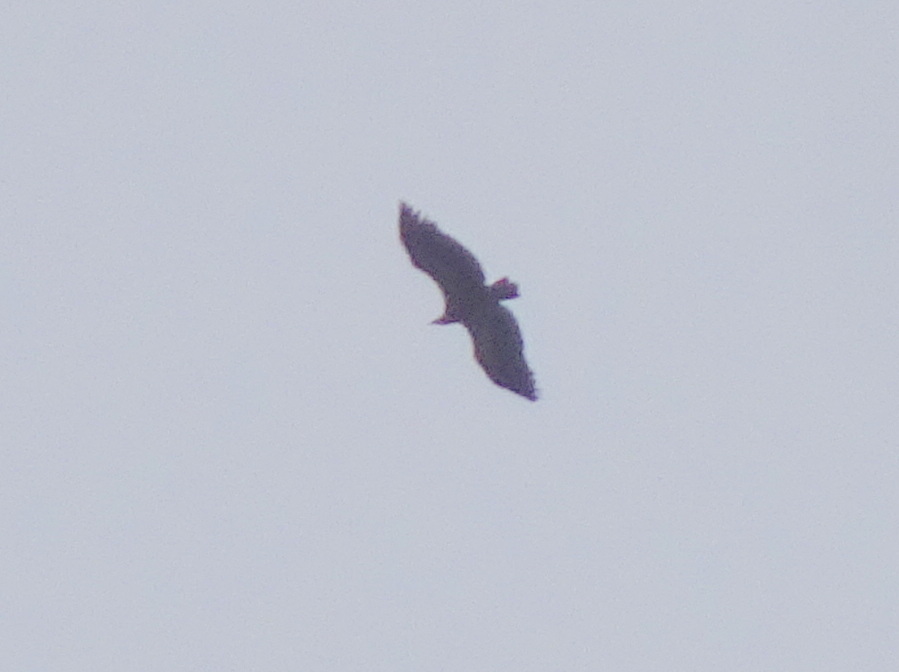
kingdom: Animalia
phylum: Chordata
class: Aves
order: Accipitriformes
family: Accipitridae
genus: Gyps
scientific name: Gyps fulvus
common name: Griffon vulture
